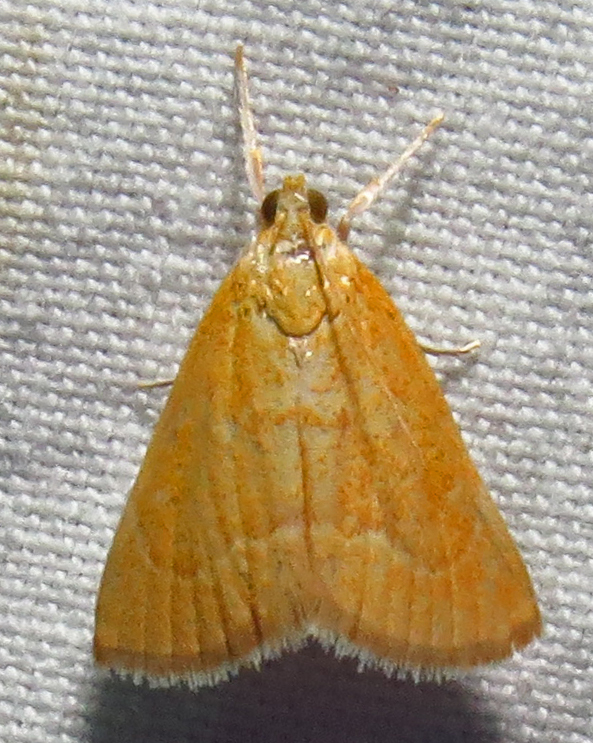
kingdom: Animalia
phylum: Arthropoda
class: Insecta
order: Lepidoptera
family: Crambidae
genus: Glaphyria
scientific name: Glaphyria invisalis
